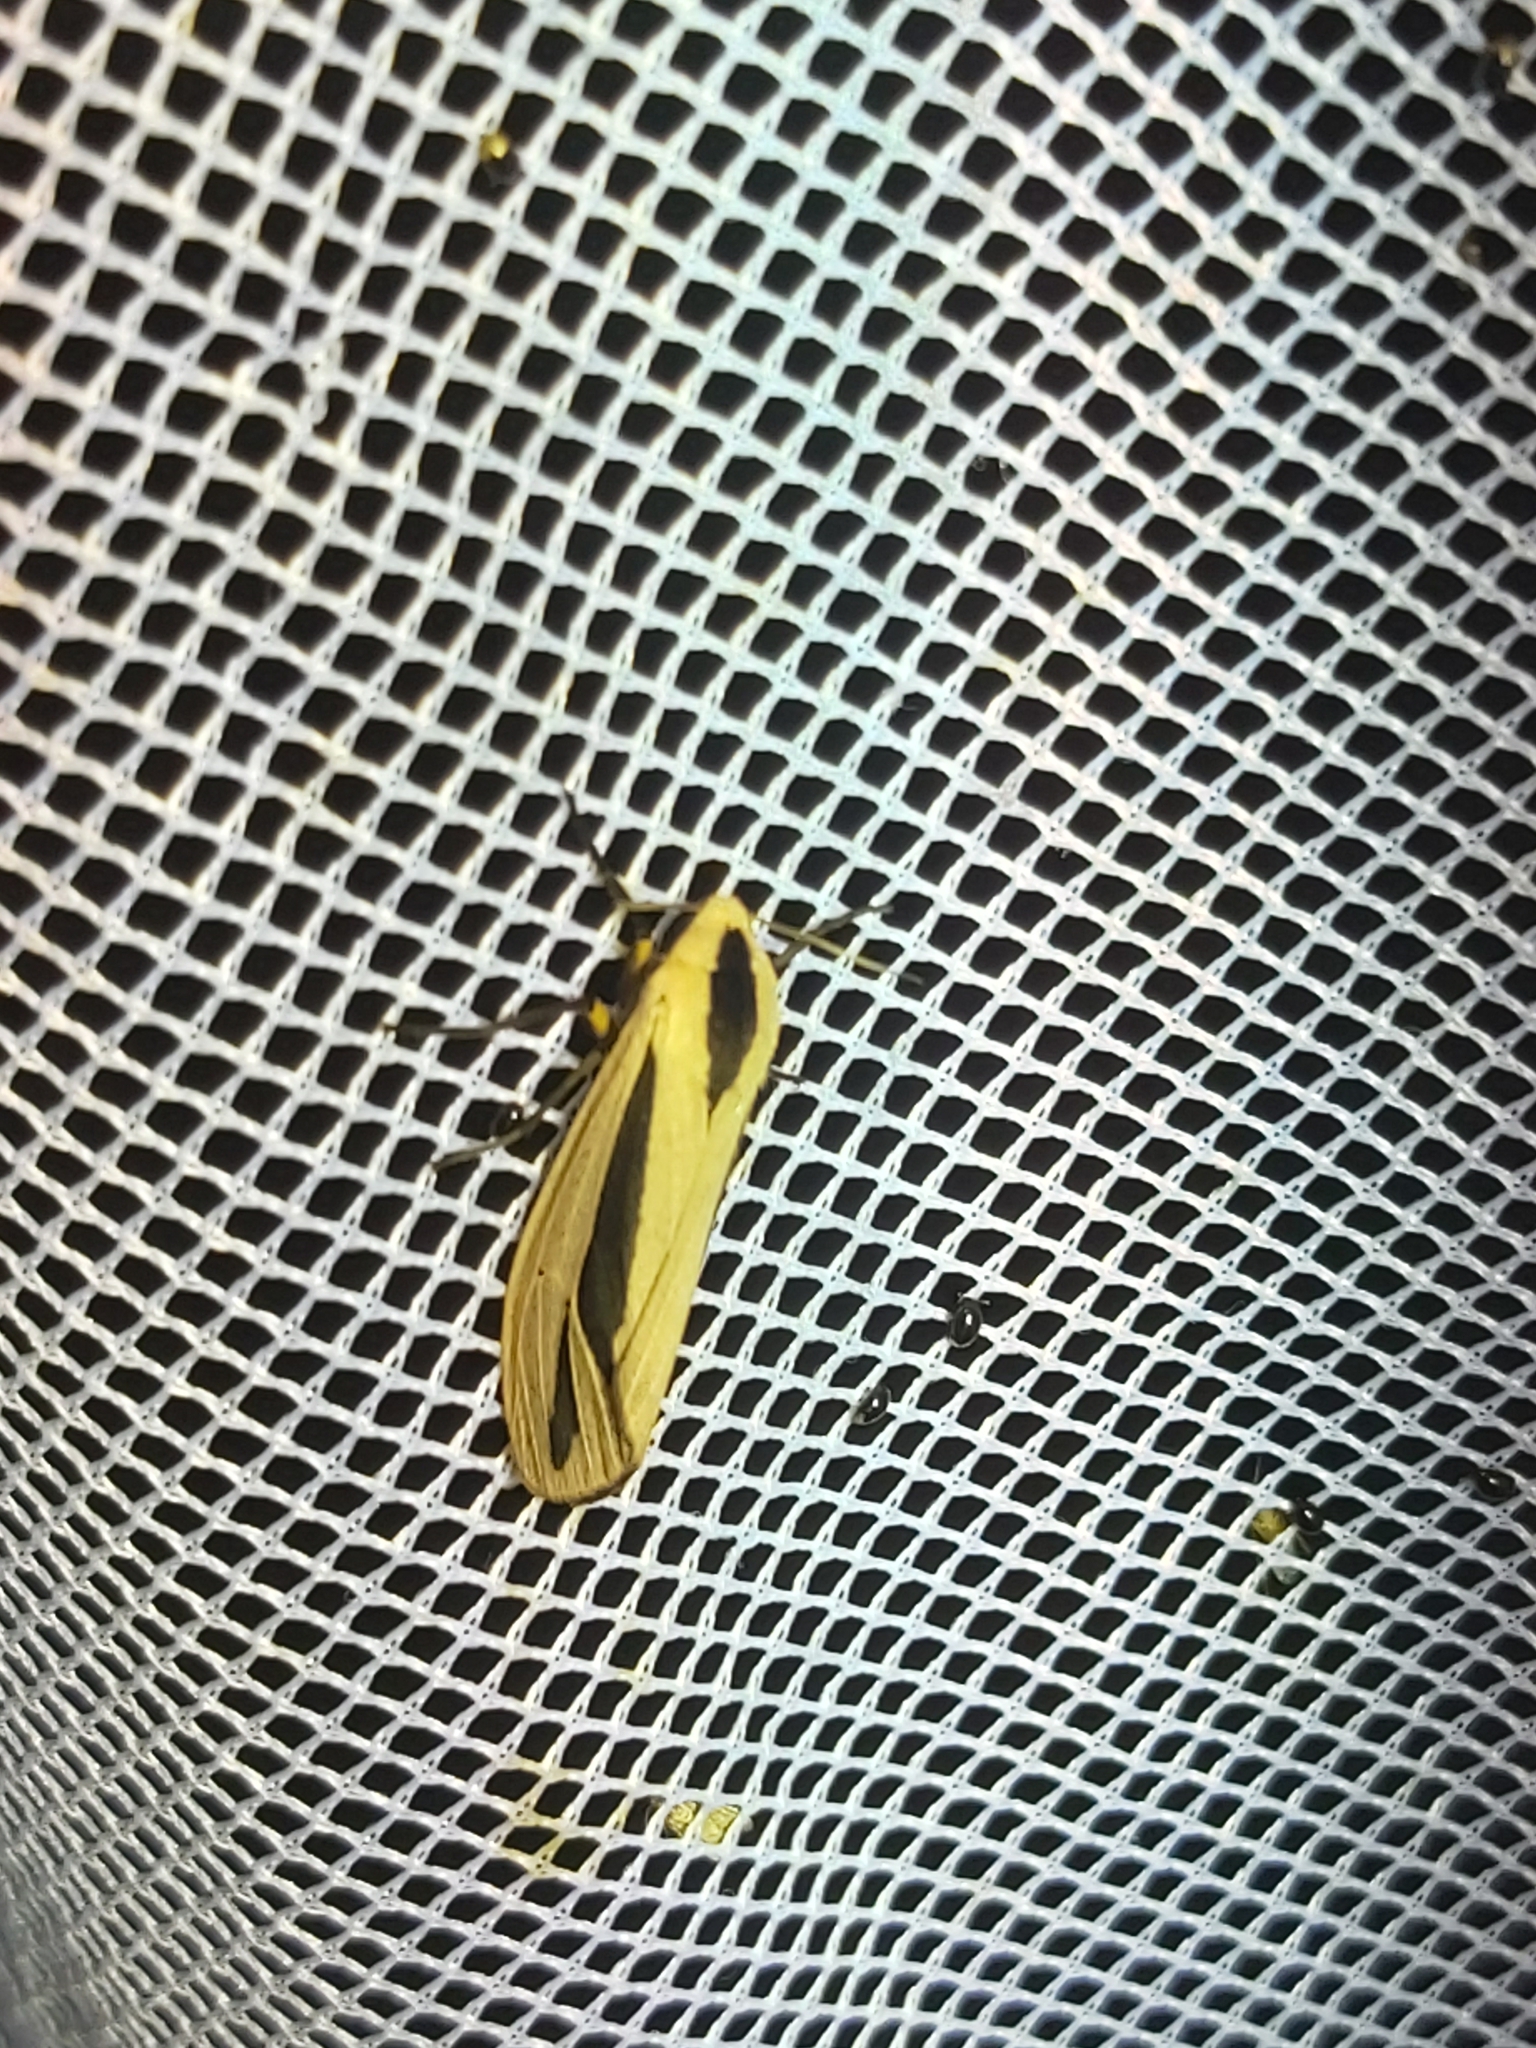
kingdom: Animalia
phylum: Arthropoda
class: Insecta
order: Lepidoptera
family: Erebidae
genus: Creatonotos
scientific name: Creatonotos gangis
